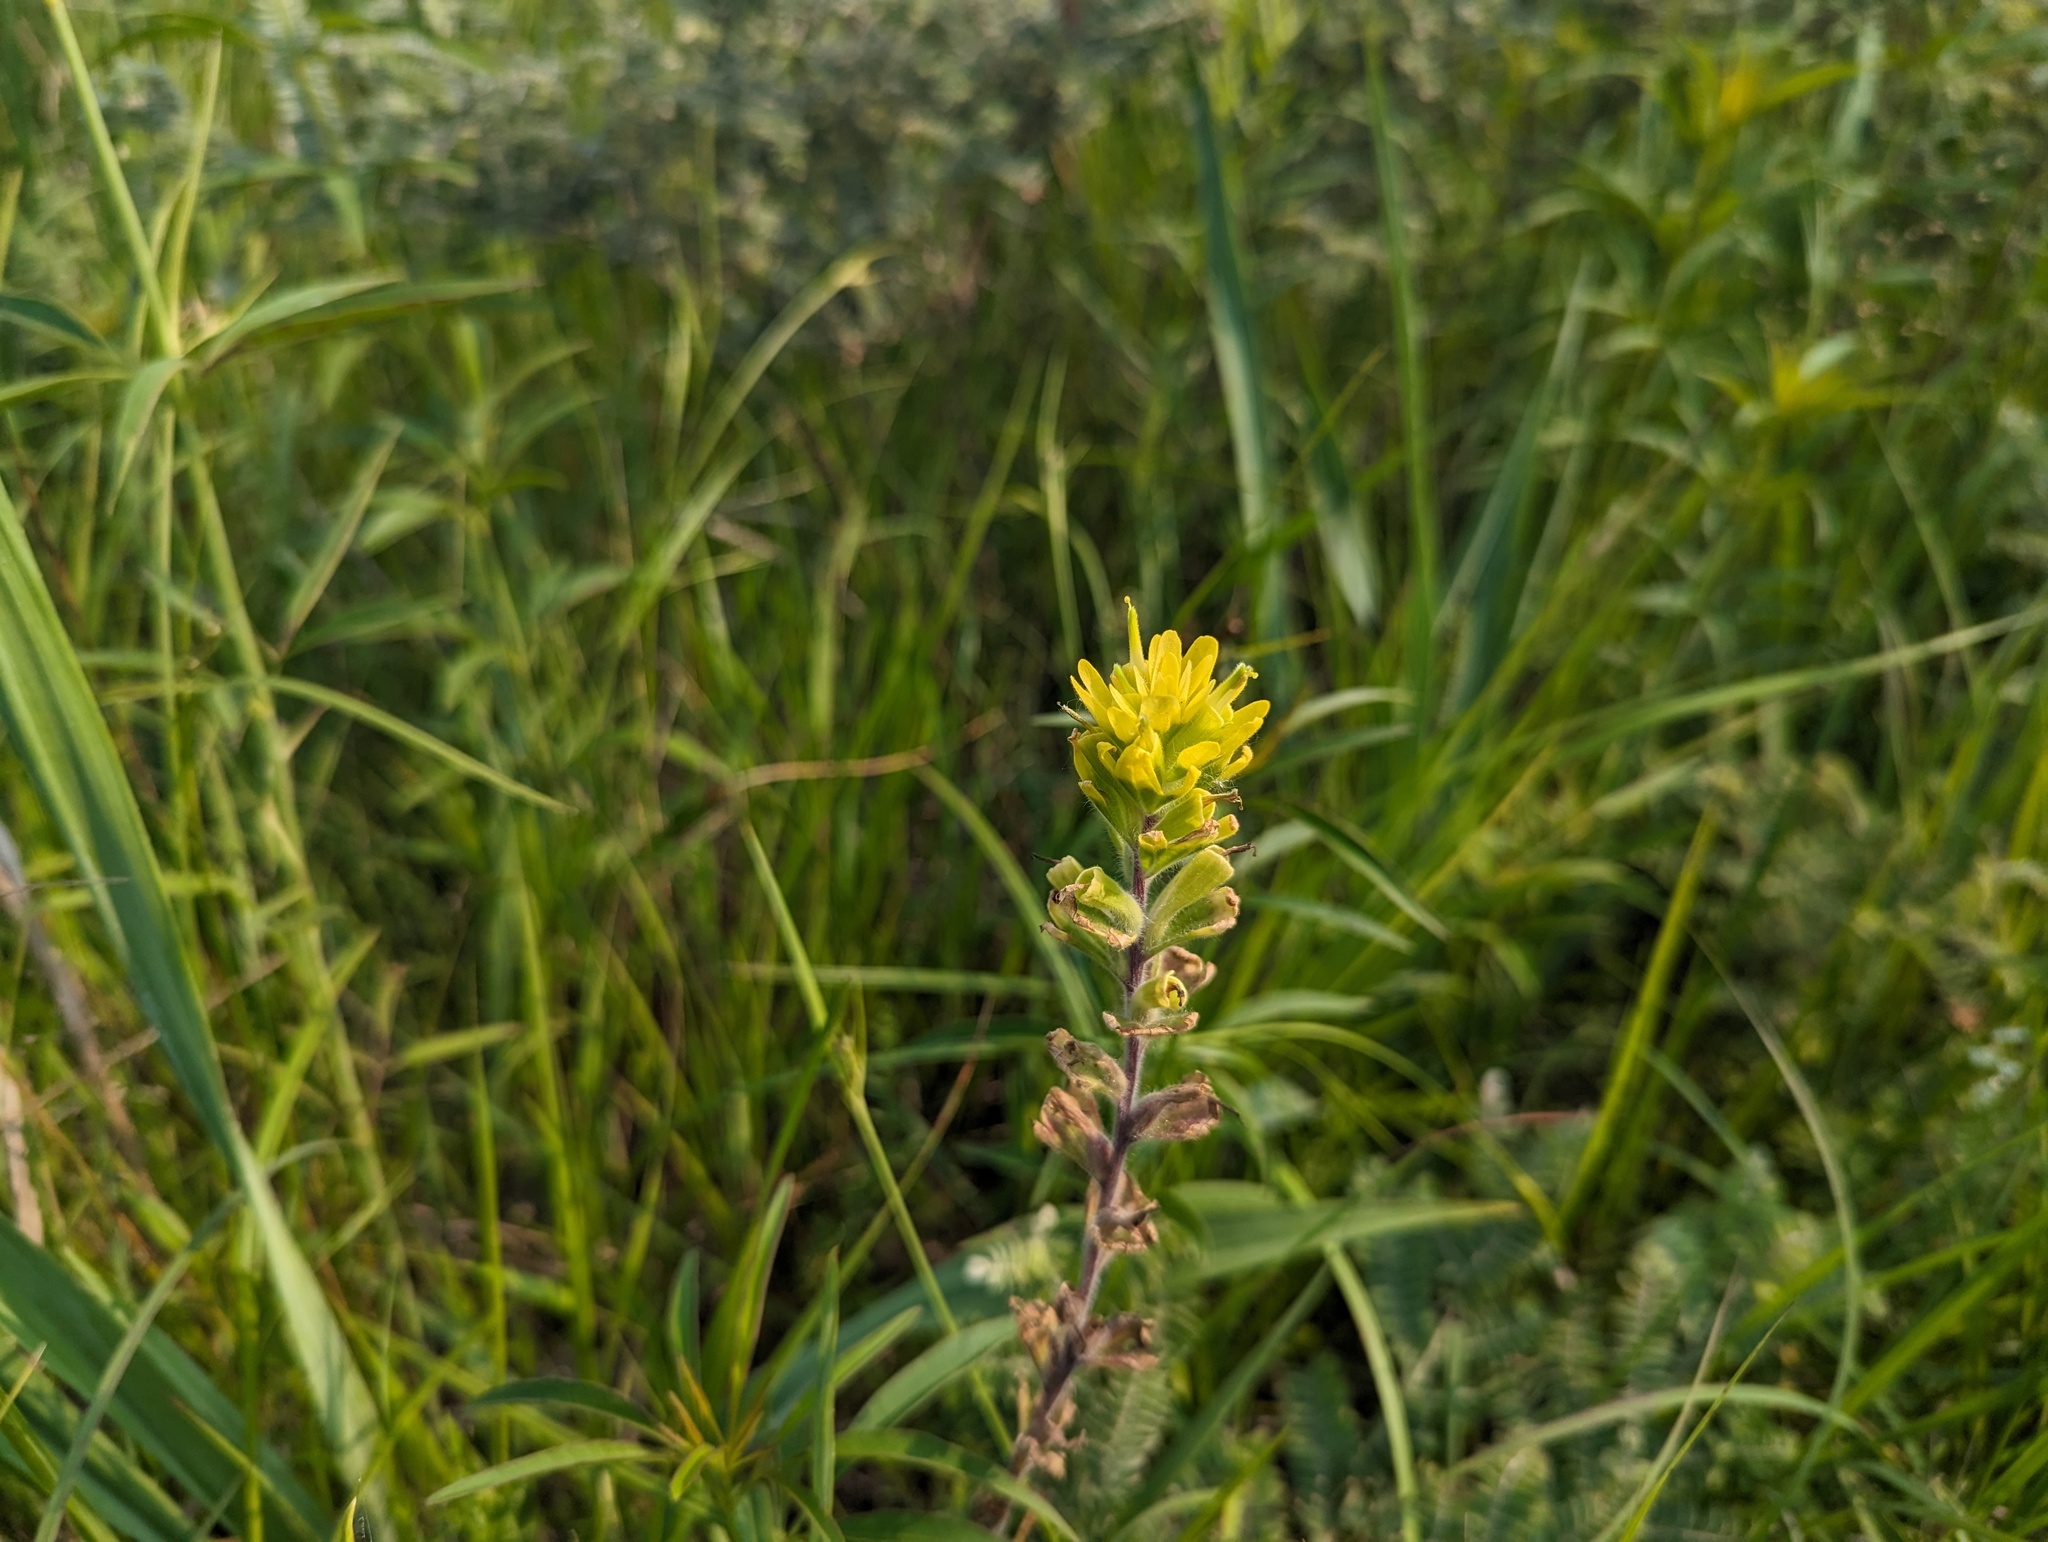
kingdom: Plantae
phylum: Tracheophyta
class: Magnoliopsida
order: Lamiales
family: Orobanchaceae
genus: Castilleja
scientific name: Castilleja coccinea
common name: Scarlet paintbrush
